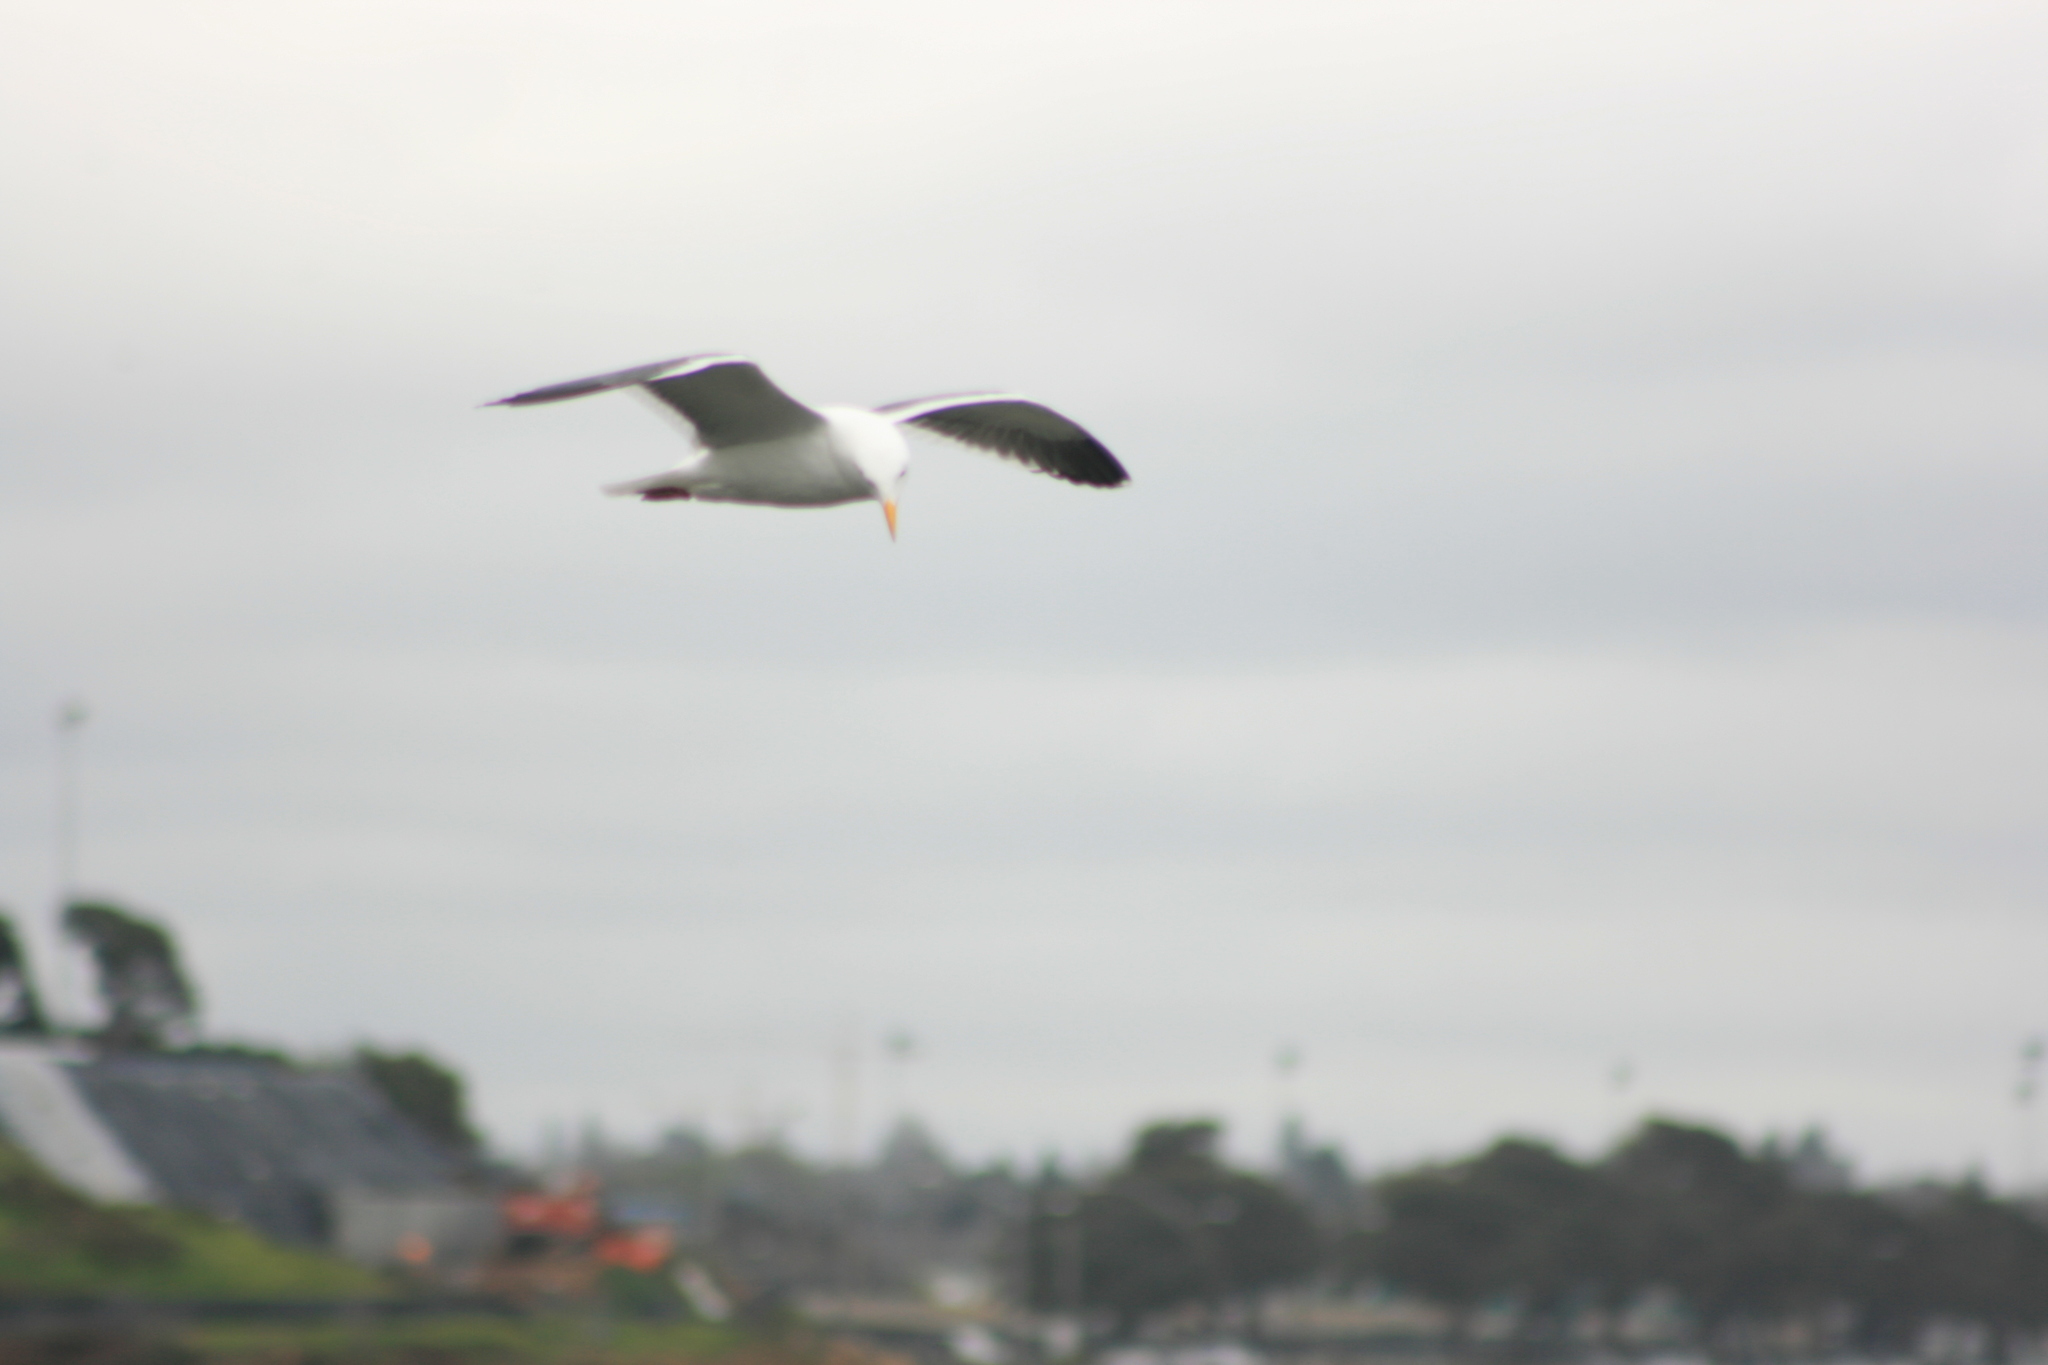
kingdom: Animalia
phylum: Chordata
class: Aves
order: Charadriiformes
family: Laridae
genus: Larus
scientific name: Larus occidentalis
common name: Western gull
